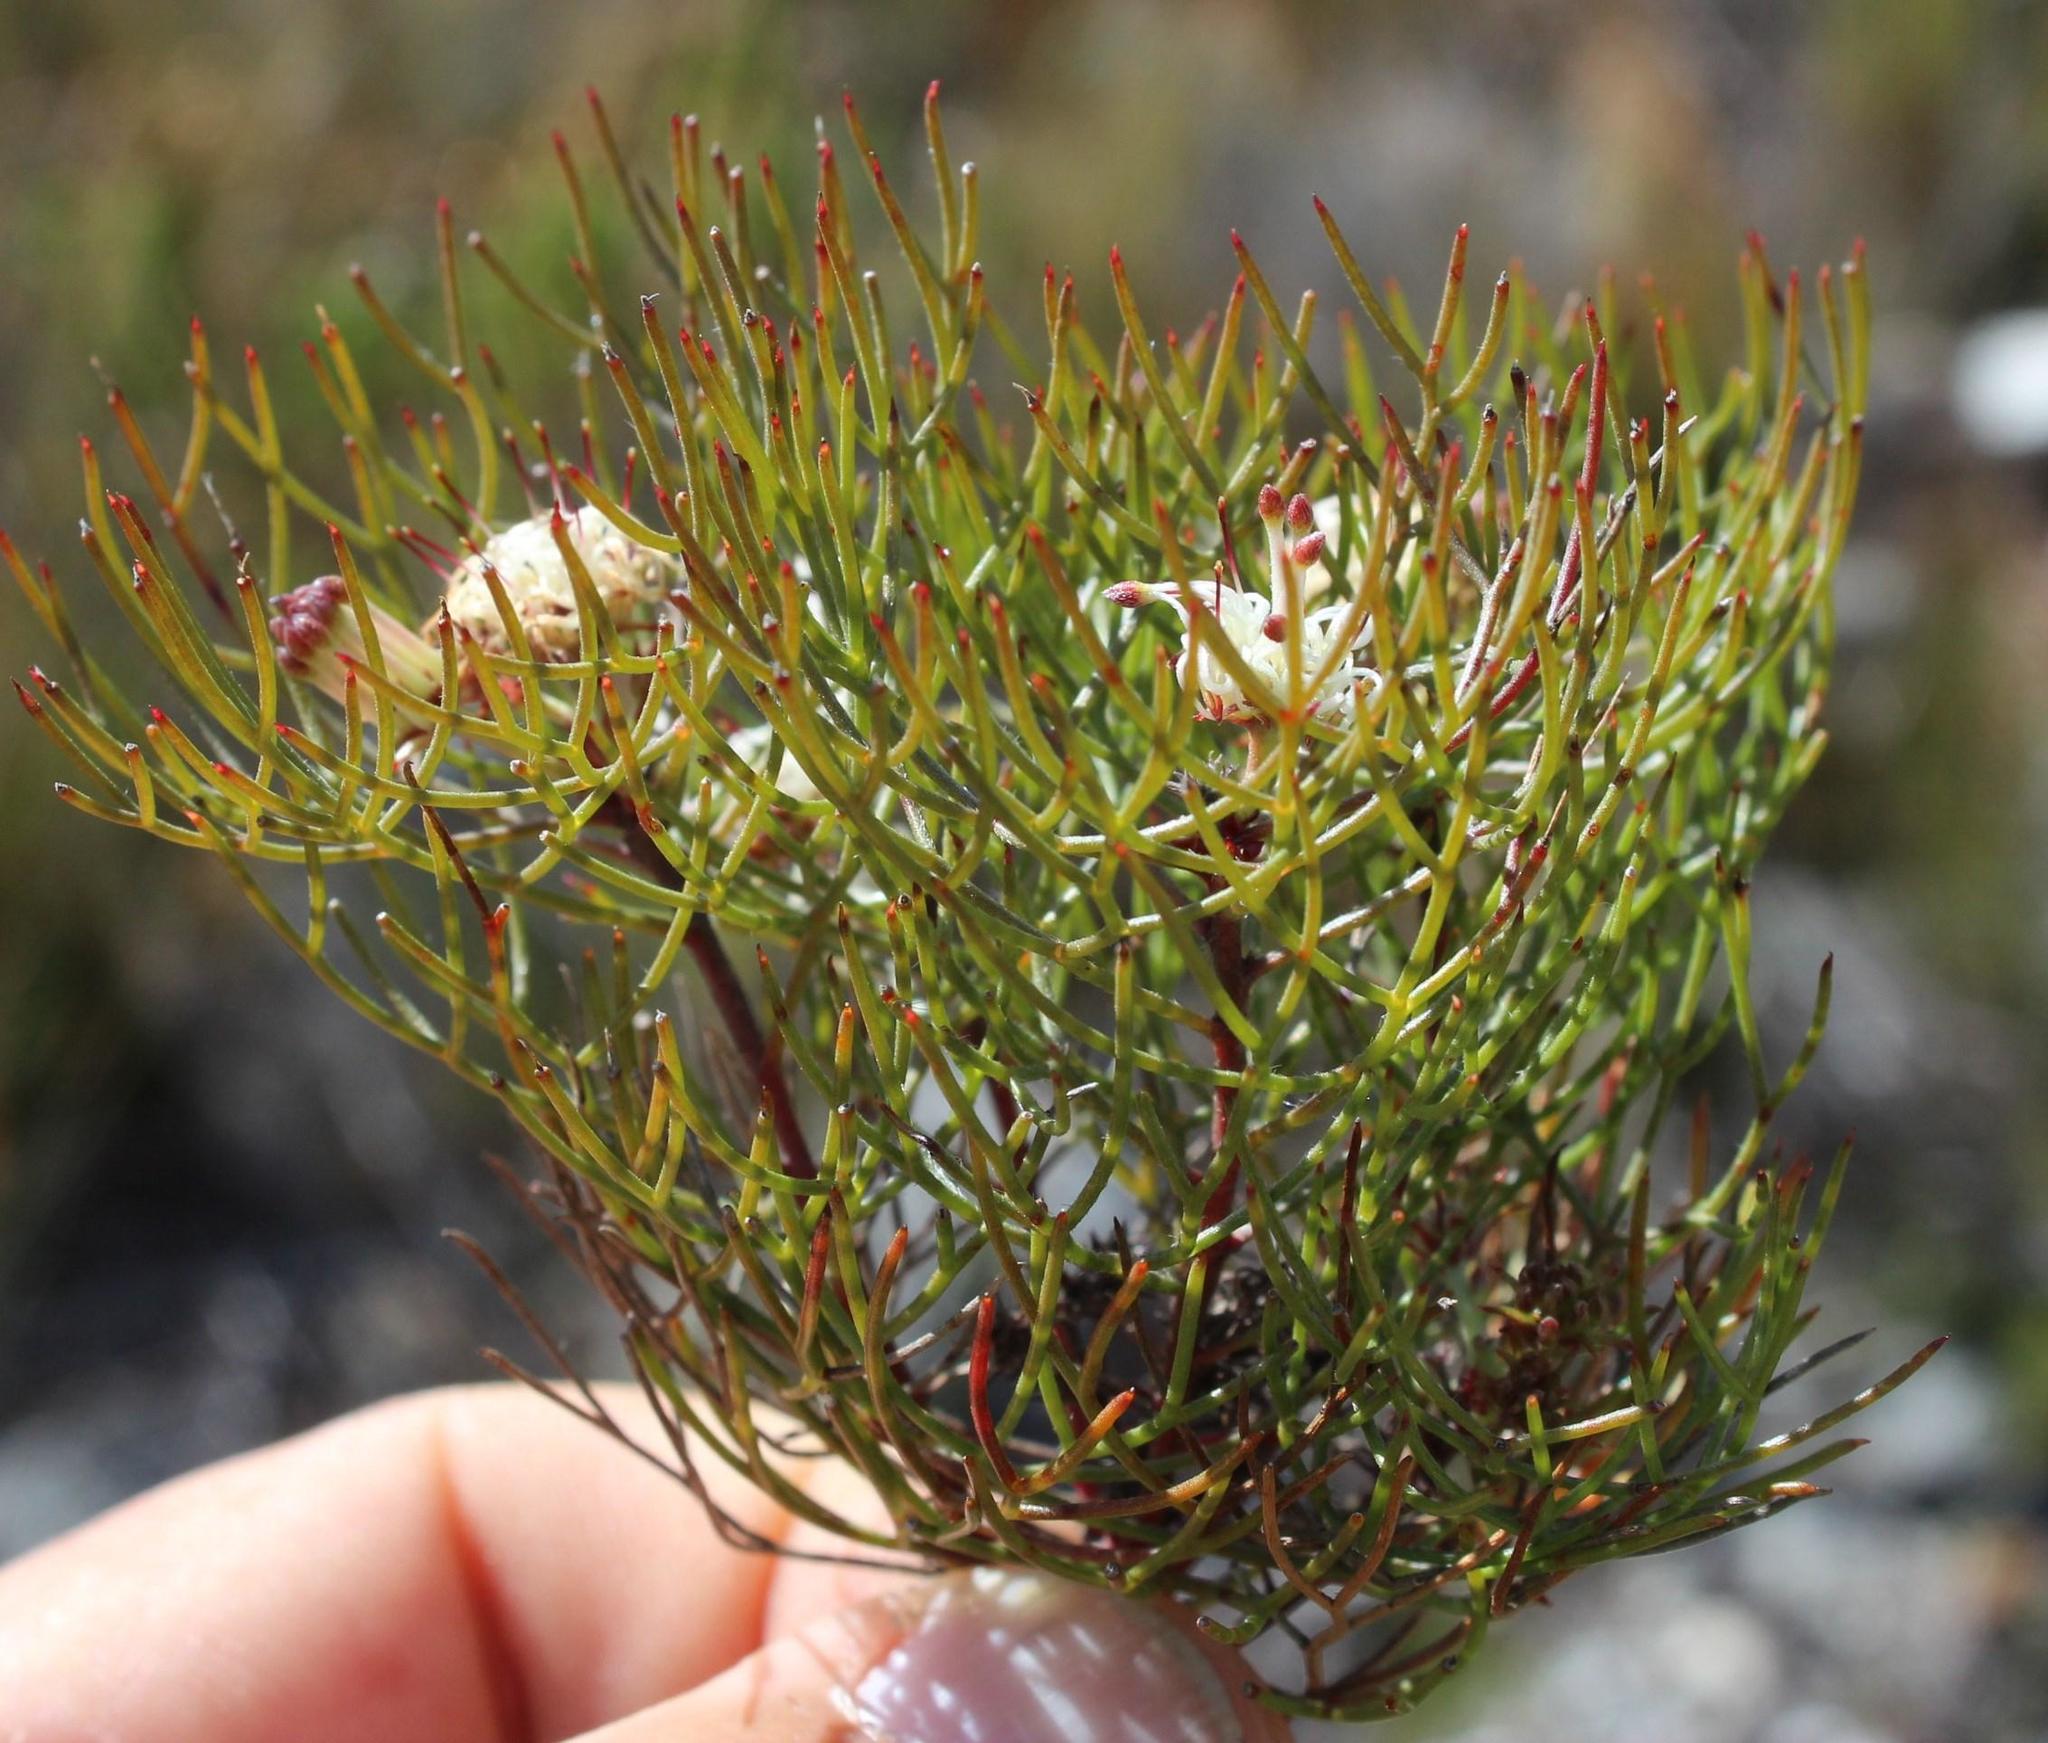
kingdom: Plantae
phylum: Tracheophyta
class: Magnoliopsida
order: Proteales
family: Proteaceae
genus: Serruria
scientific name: Serruria inconspicua
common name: Cryptic spiderhead
